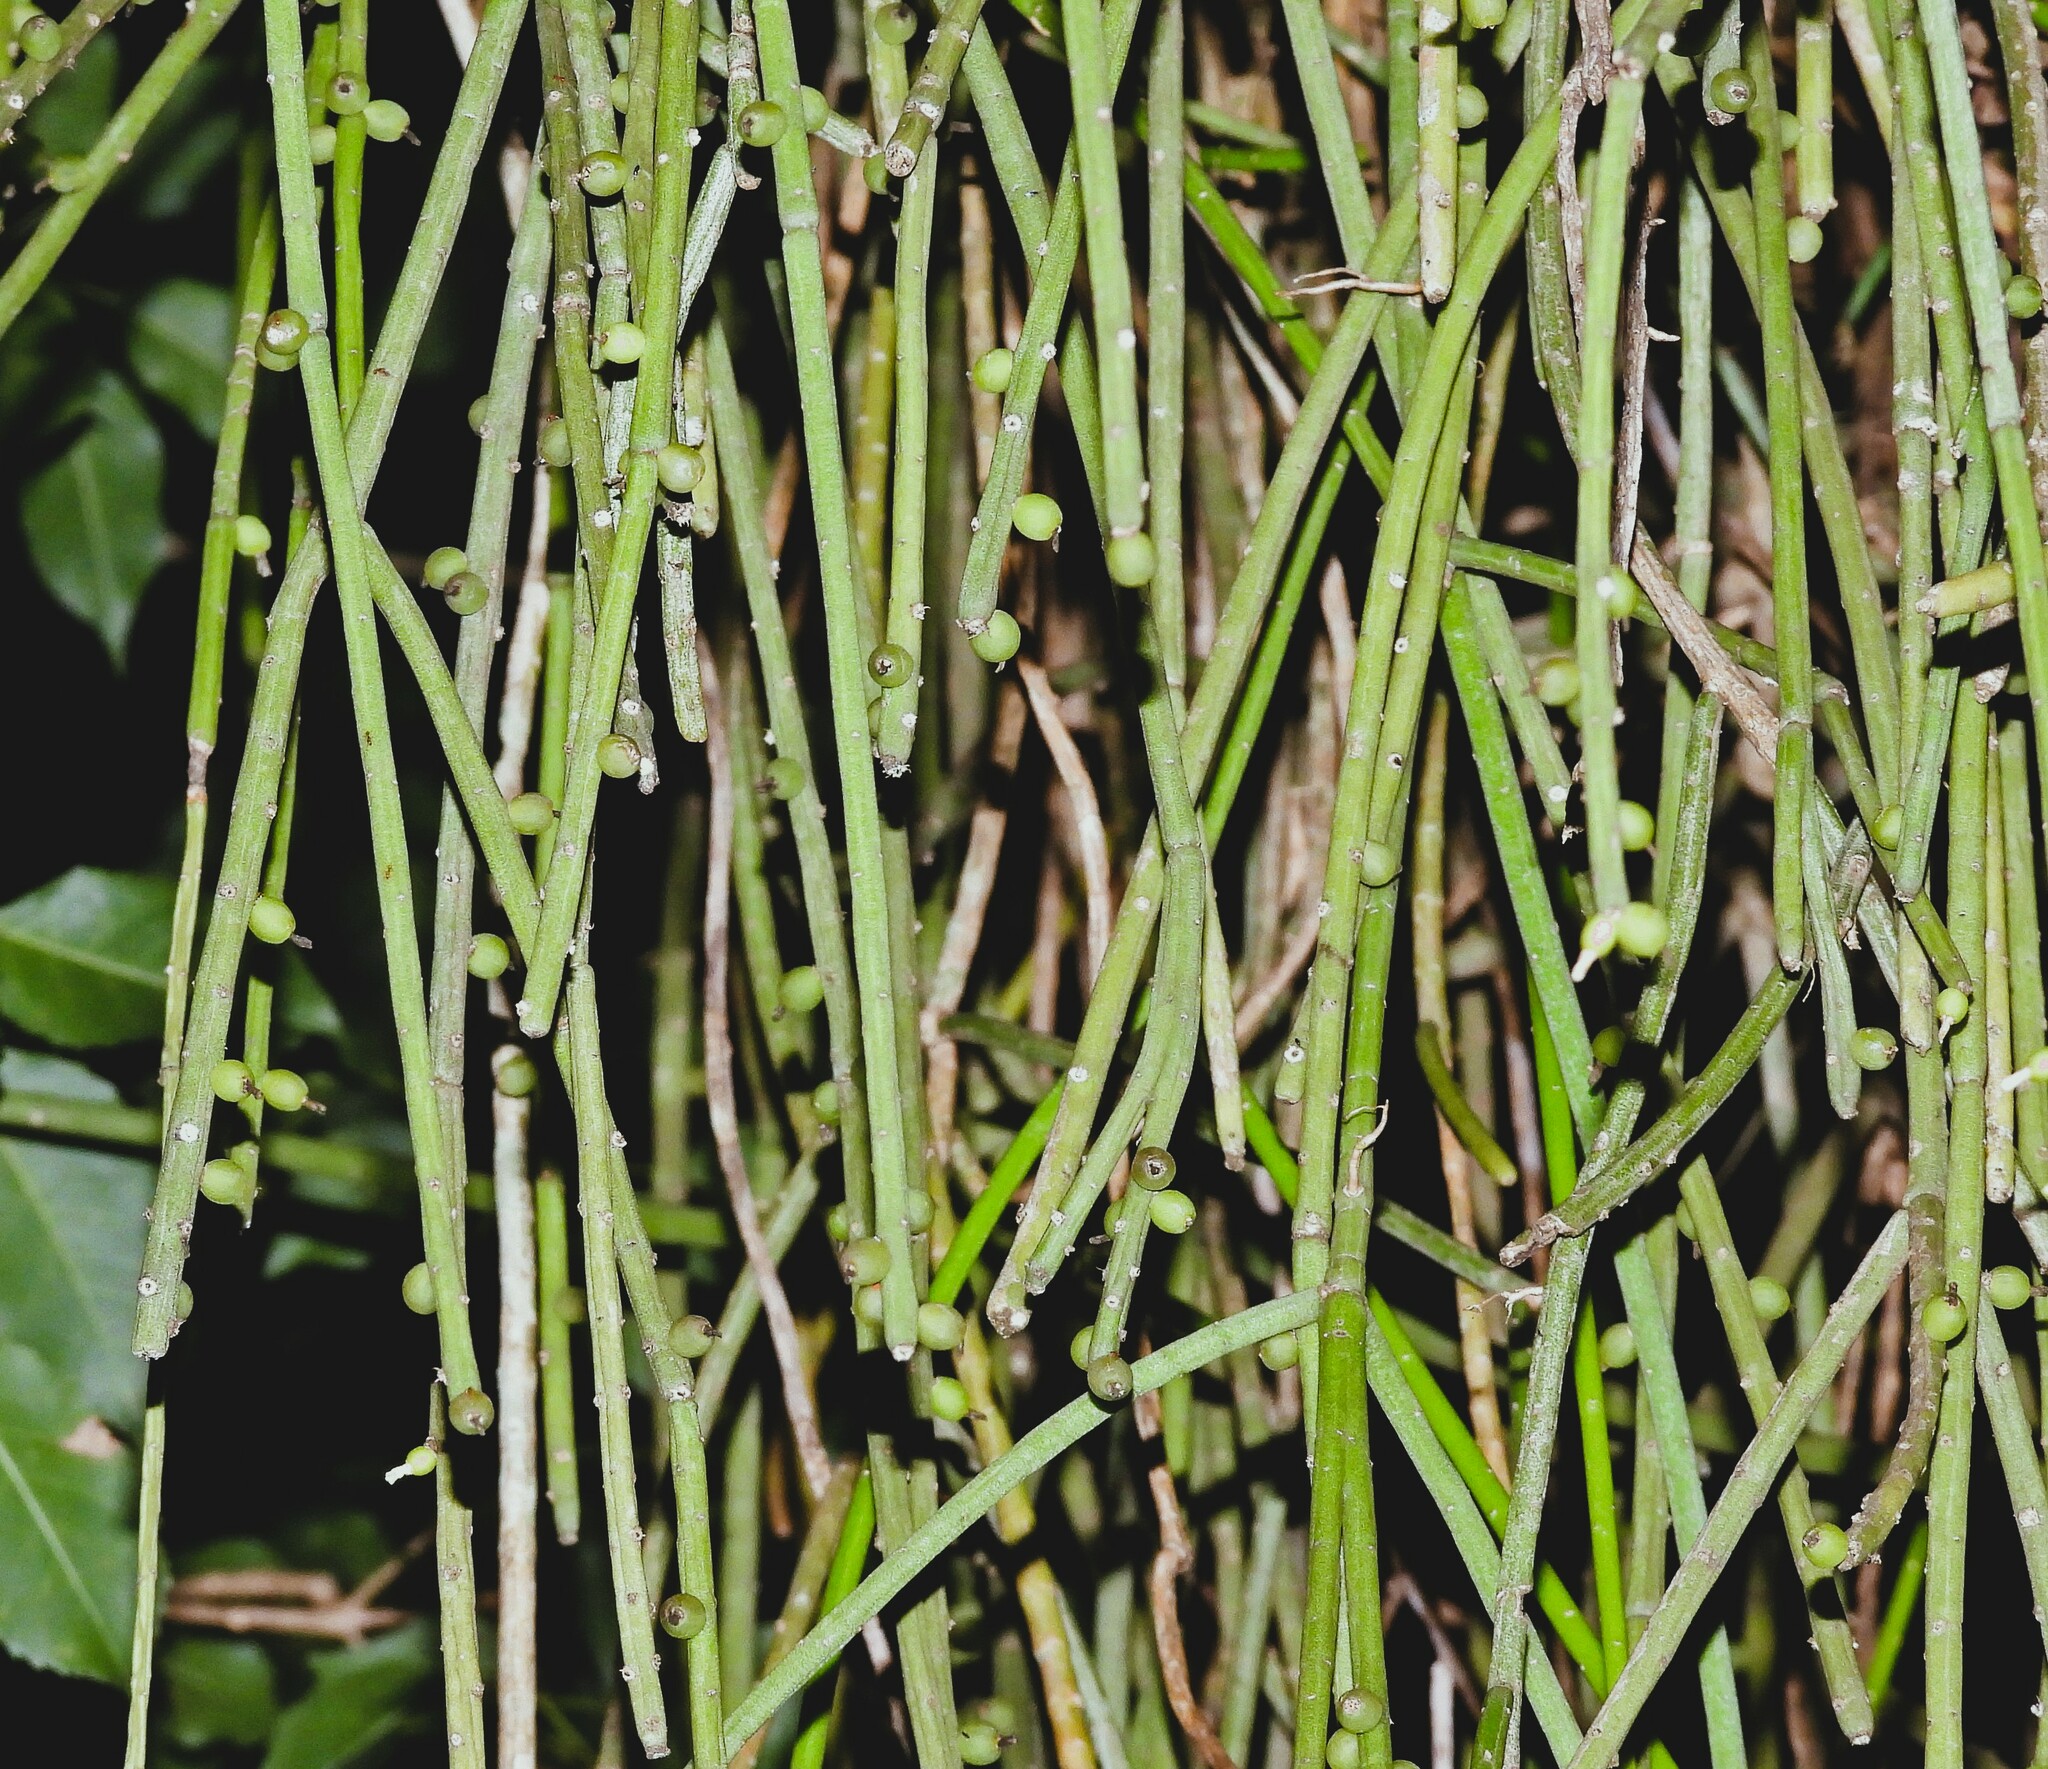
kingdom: Plantae
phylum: Tracheophyta
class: Magnoliopsida
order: Caryophyllales
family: Cactaceae
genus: Rhipsalis
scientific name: Rhipsalis baccifera
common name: Mistletoe cactus
